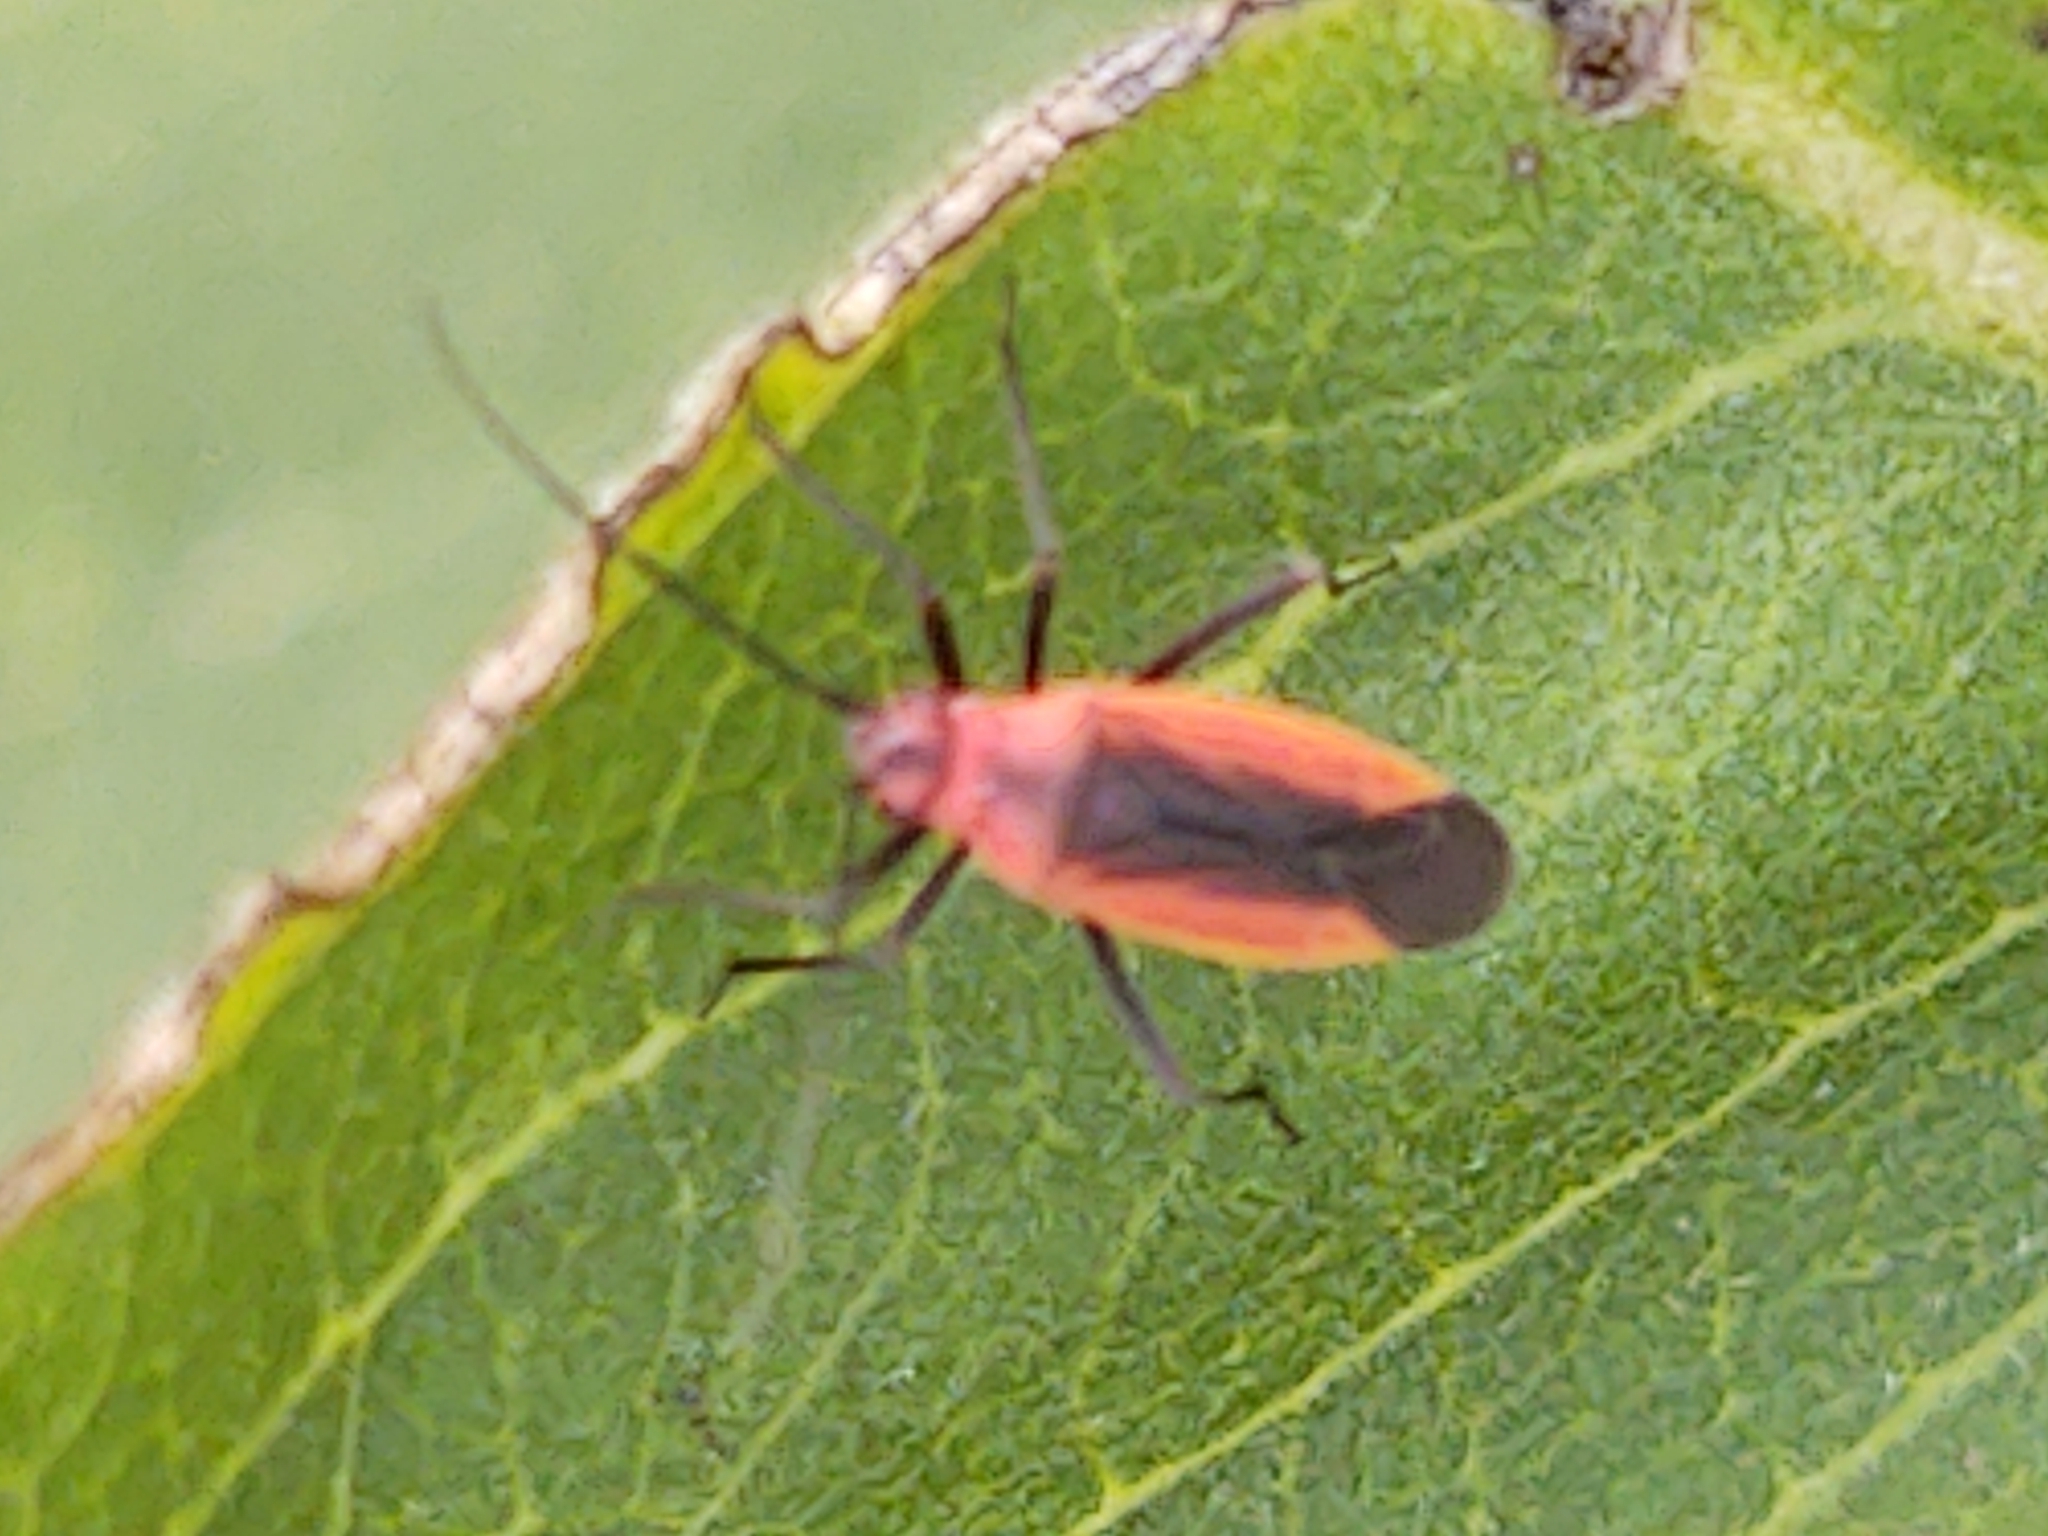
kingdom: Animalia
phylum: Arthropoda
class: Insecta
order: Hemiptera
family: Miridae
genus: Lopidea
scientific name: Lopidea instabilis
